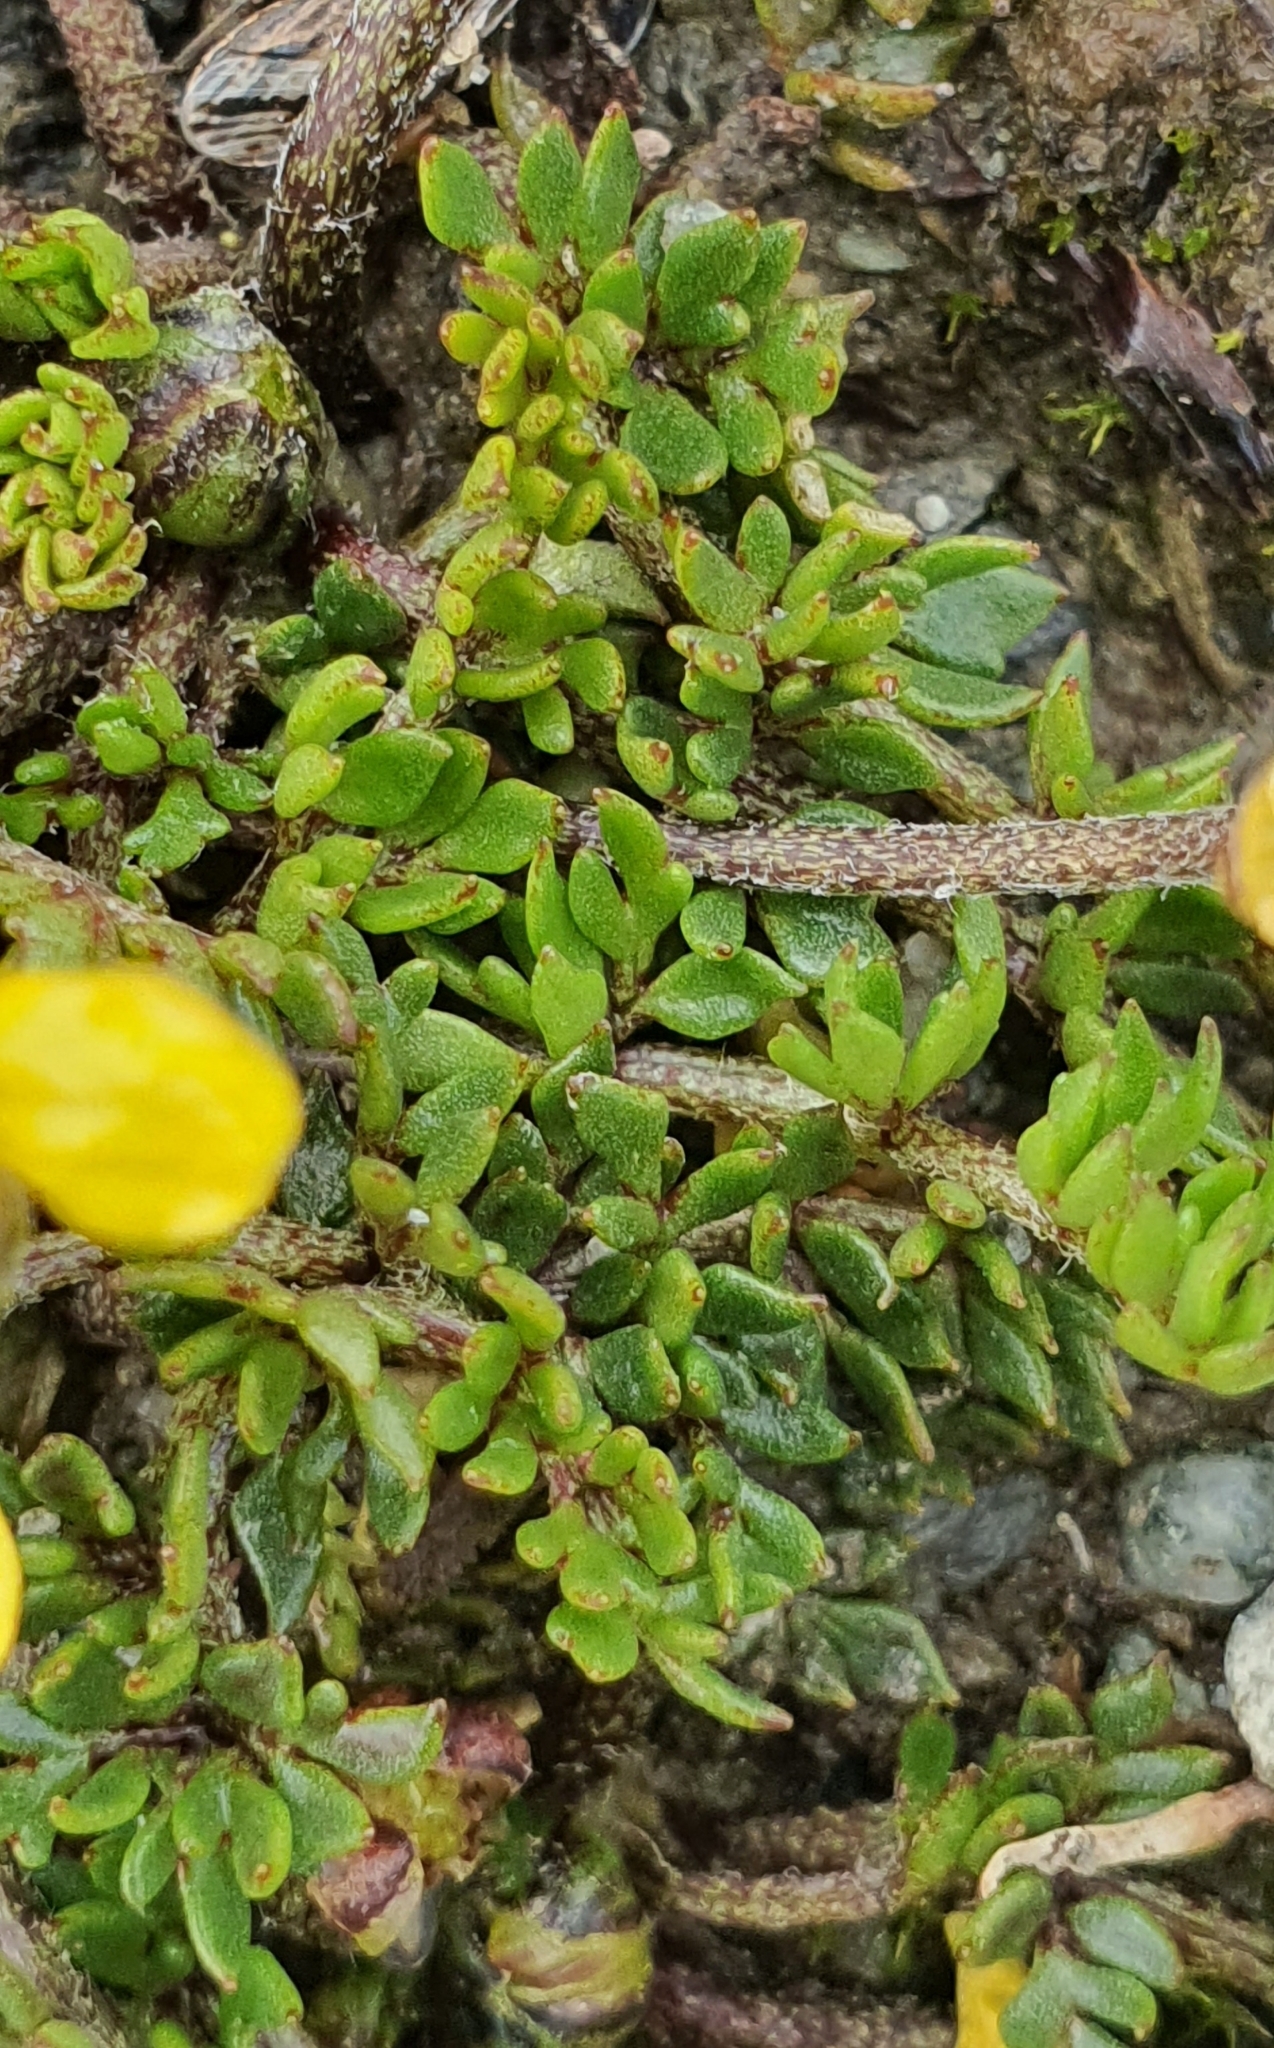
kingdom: Plantae
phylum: Tracheophyta
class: Magnoliopsida
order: Ranunculales
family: Ranunculaceae
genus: Ranunculus
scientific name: Ranunculus gracilipes
